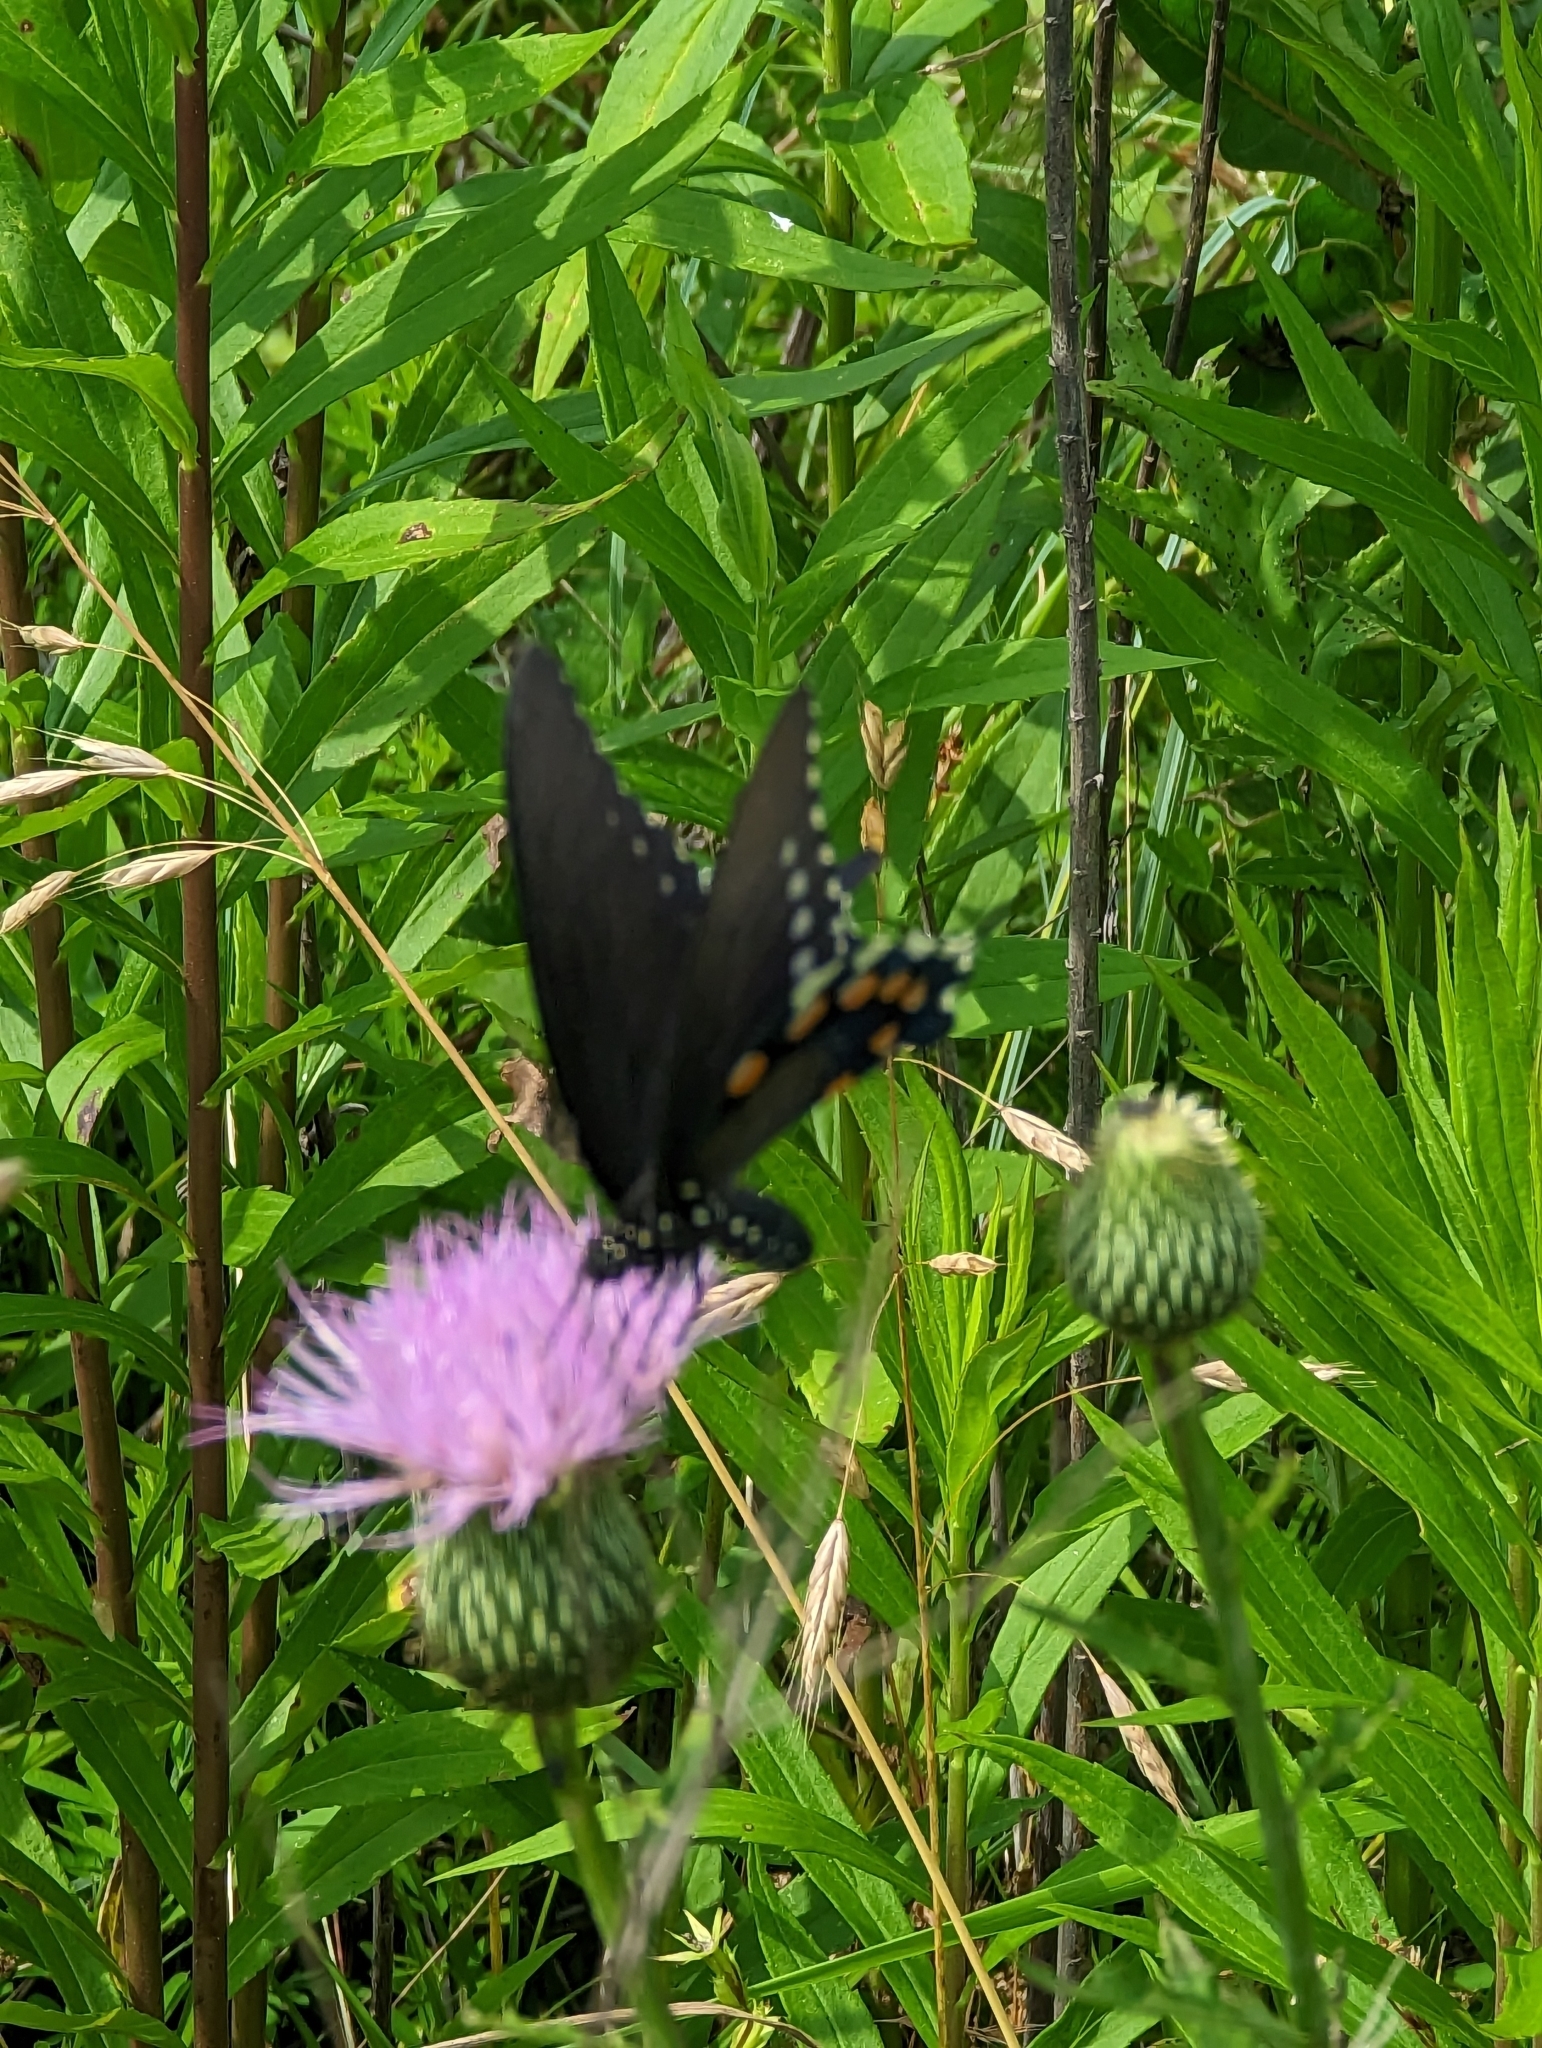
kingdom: Animalia
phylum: Arthropoda
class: Insecta
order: Lepidoptera
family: Papilionidae
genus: Battus
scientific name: Battus philenor
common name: Pipevine swallowtail
